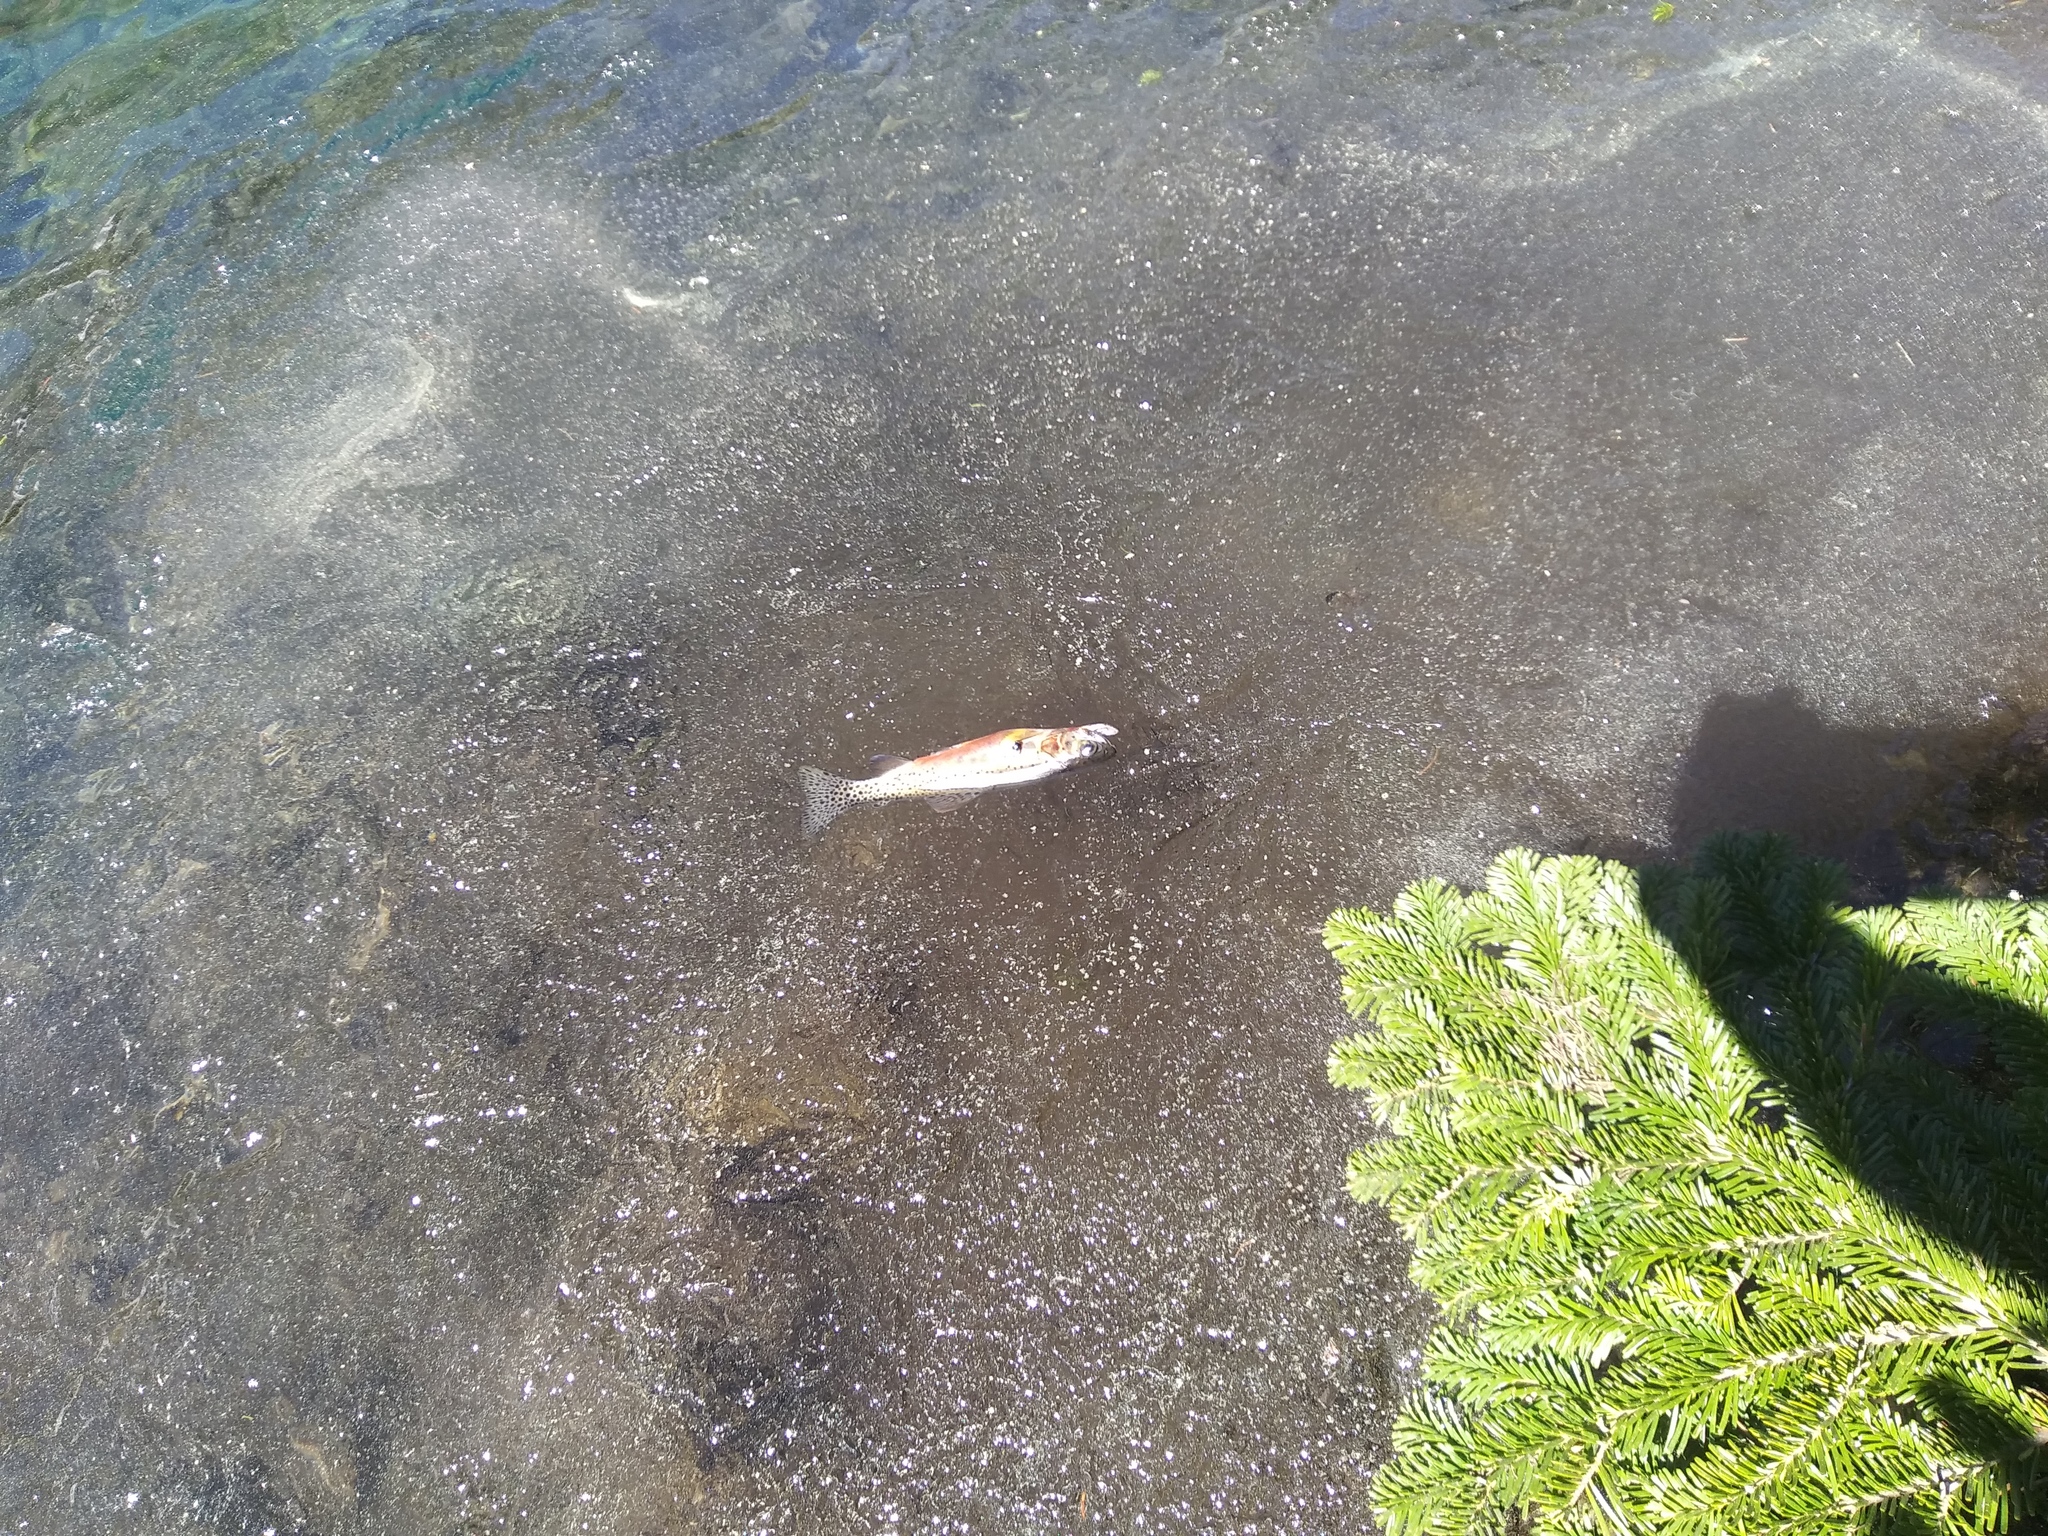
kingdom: Animalia
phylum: Chordata
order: Salmoniformes
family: Salmonidae
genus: Oncorhynchus
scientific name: Oncorhynchus
